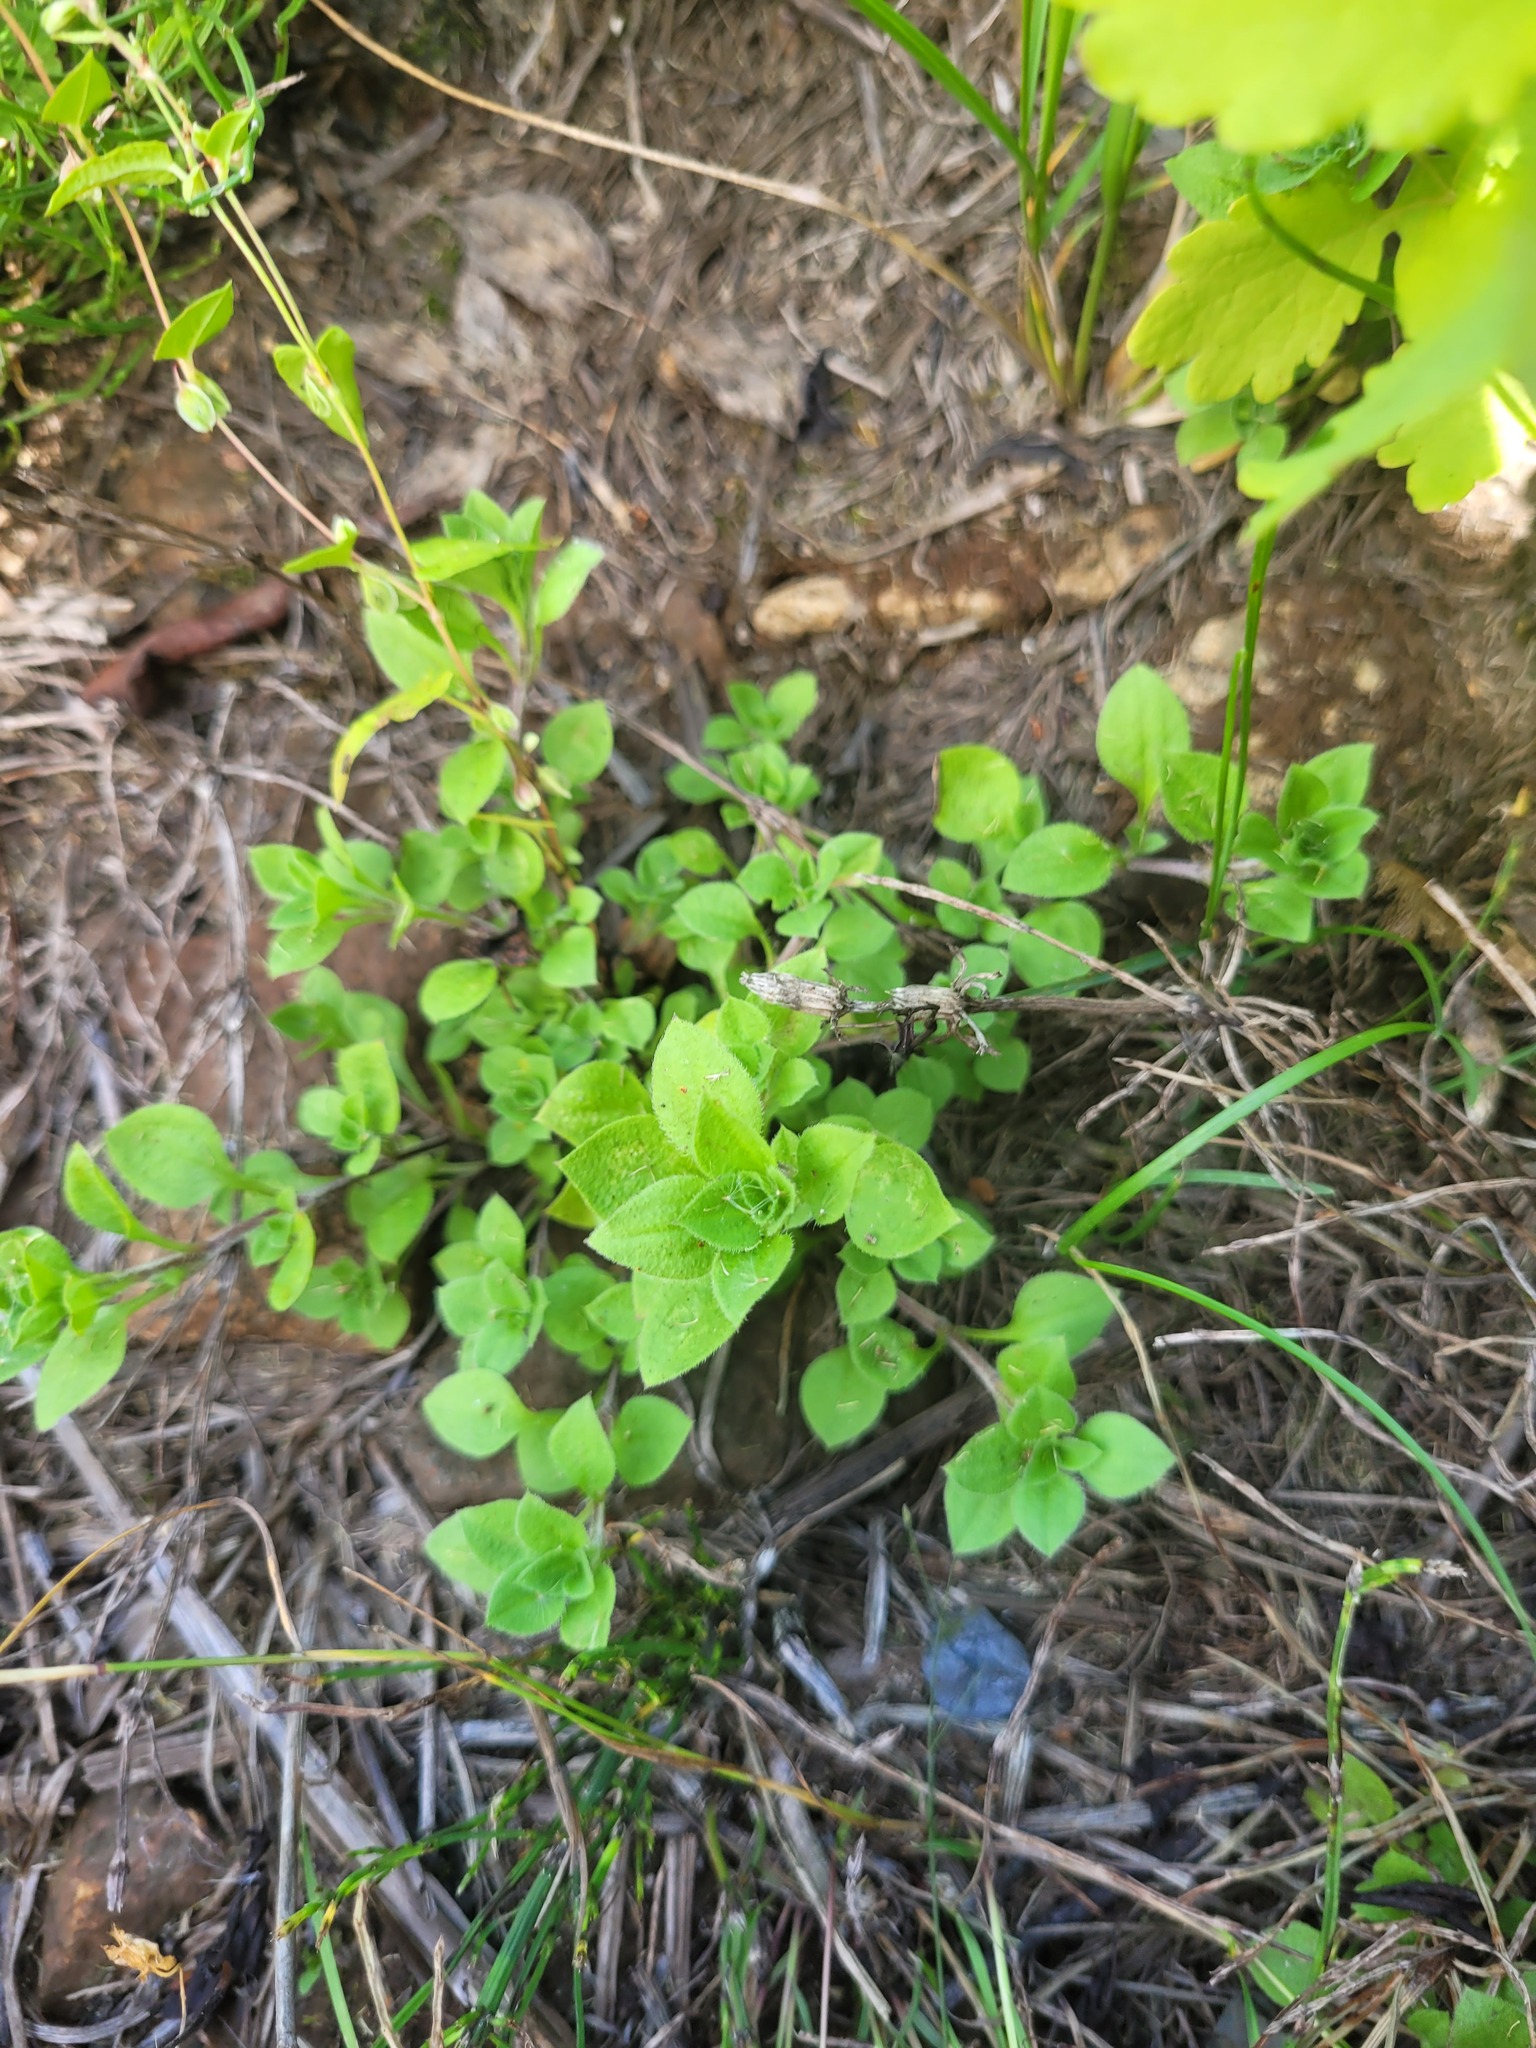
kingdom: Plantae
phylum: Tracheophyta
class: Magnoliopsida
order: Caryophyllales
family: Caryophyllaceae
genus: Moehringia
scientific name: Moehringia trinervia
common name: Three-nerved sandwort
